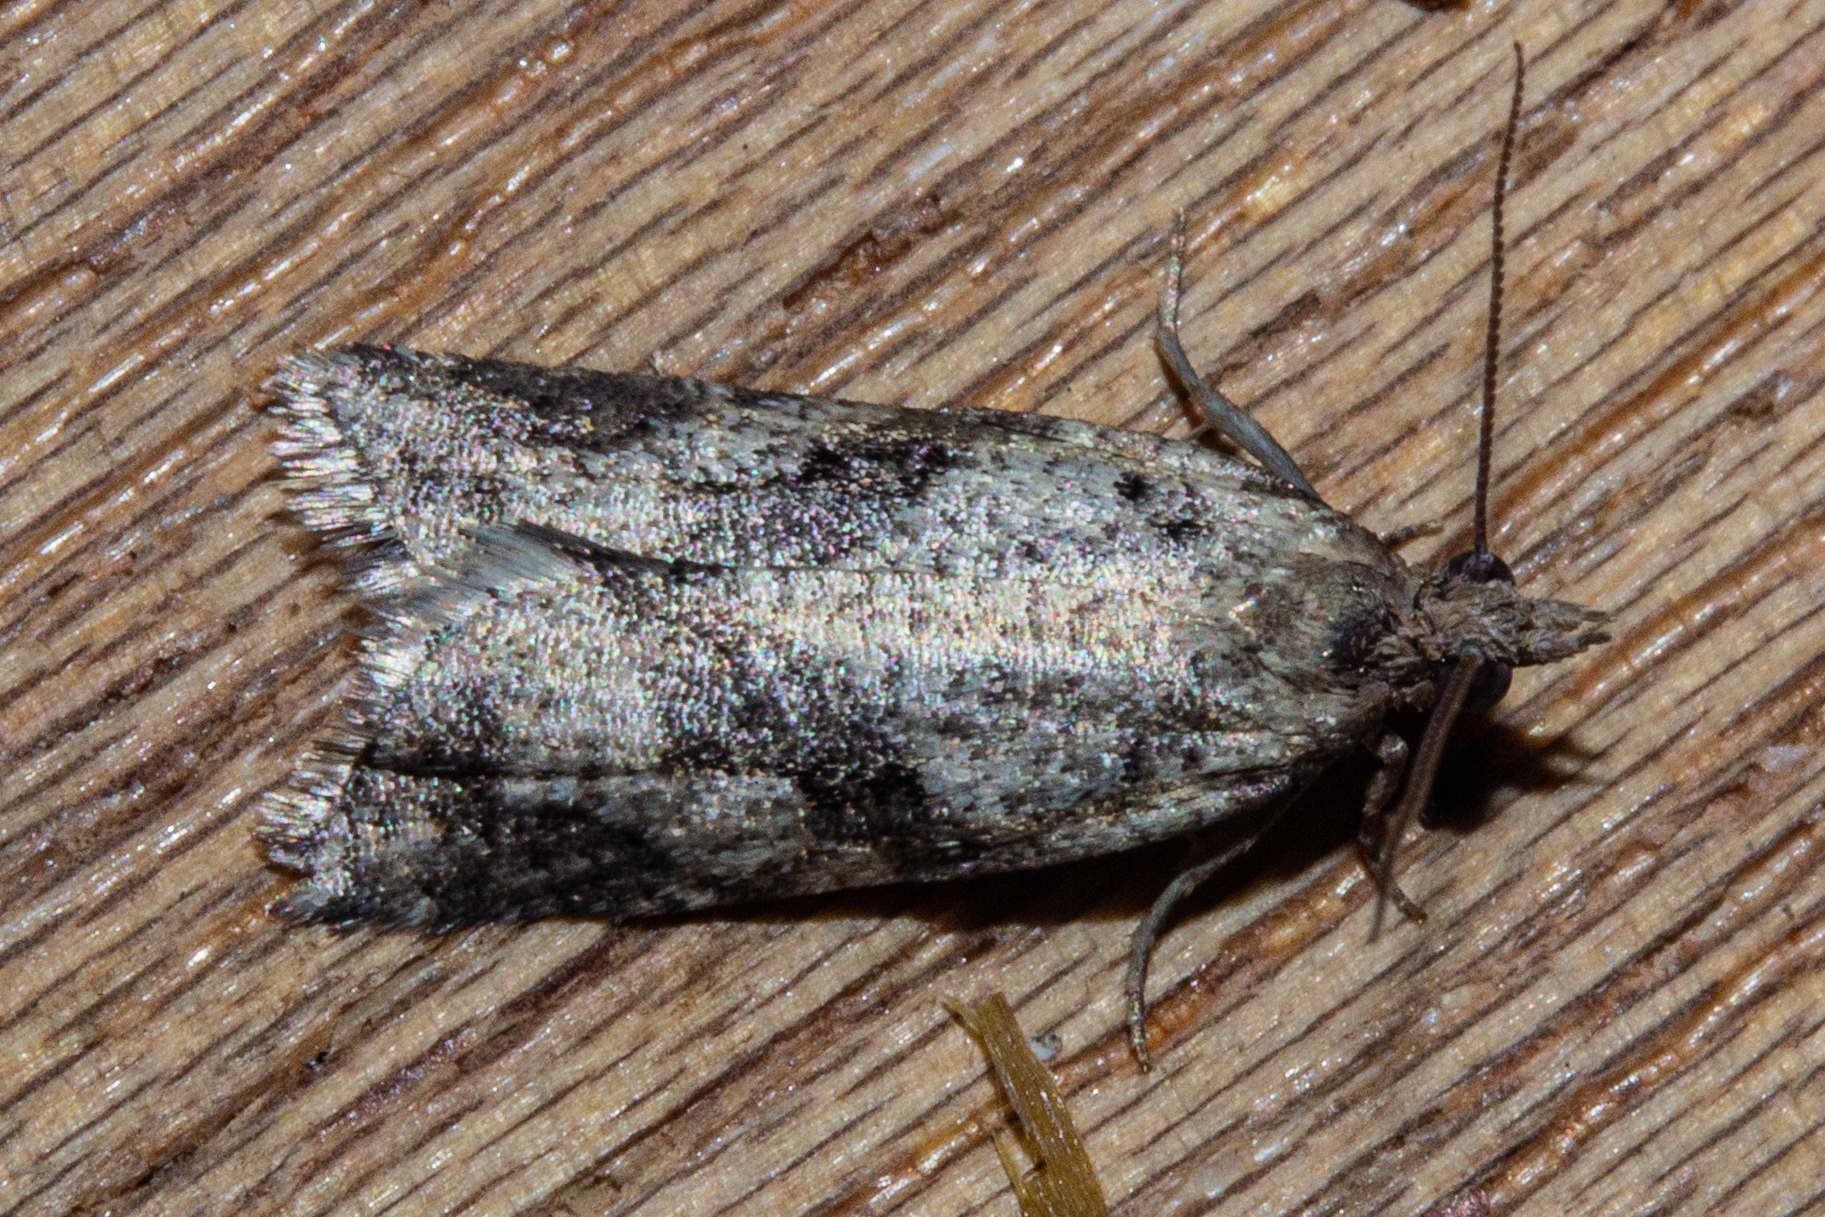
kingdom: Animalia
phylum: Arthropoda
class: Insecta
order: Lepidoptera
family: Tortricidae
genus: Capua
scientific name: Capua semiferana
